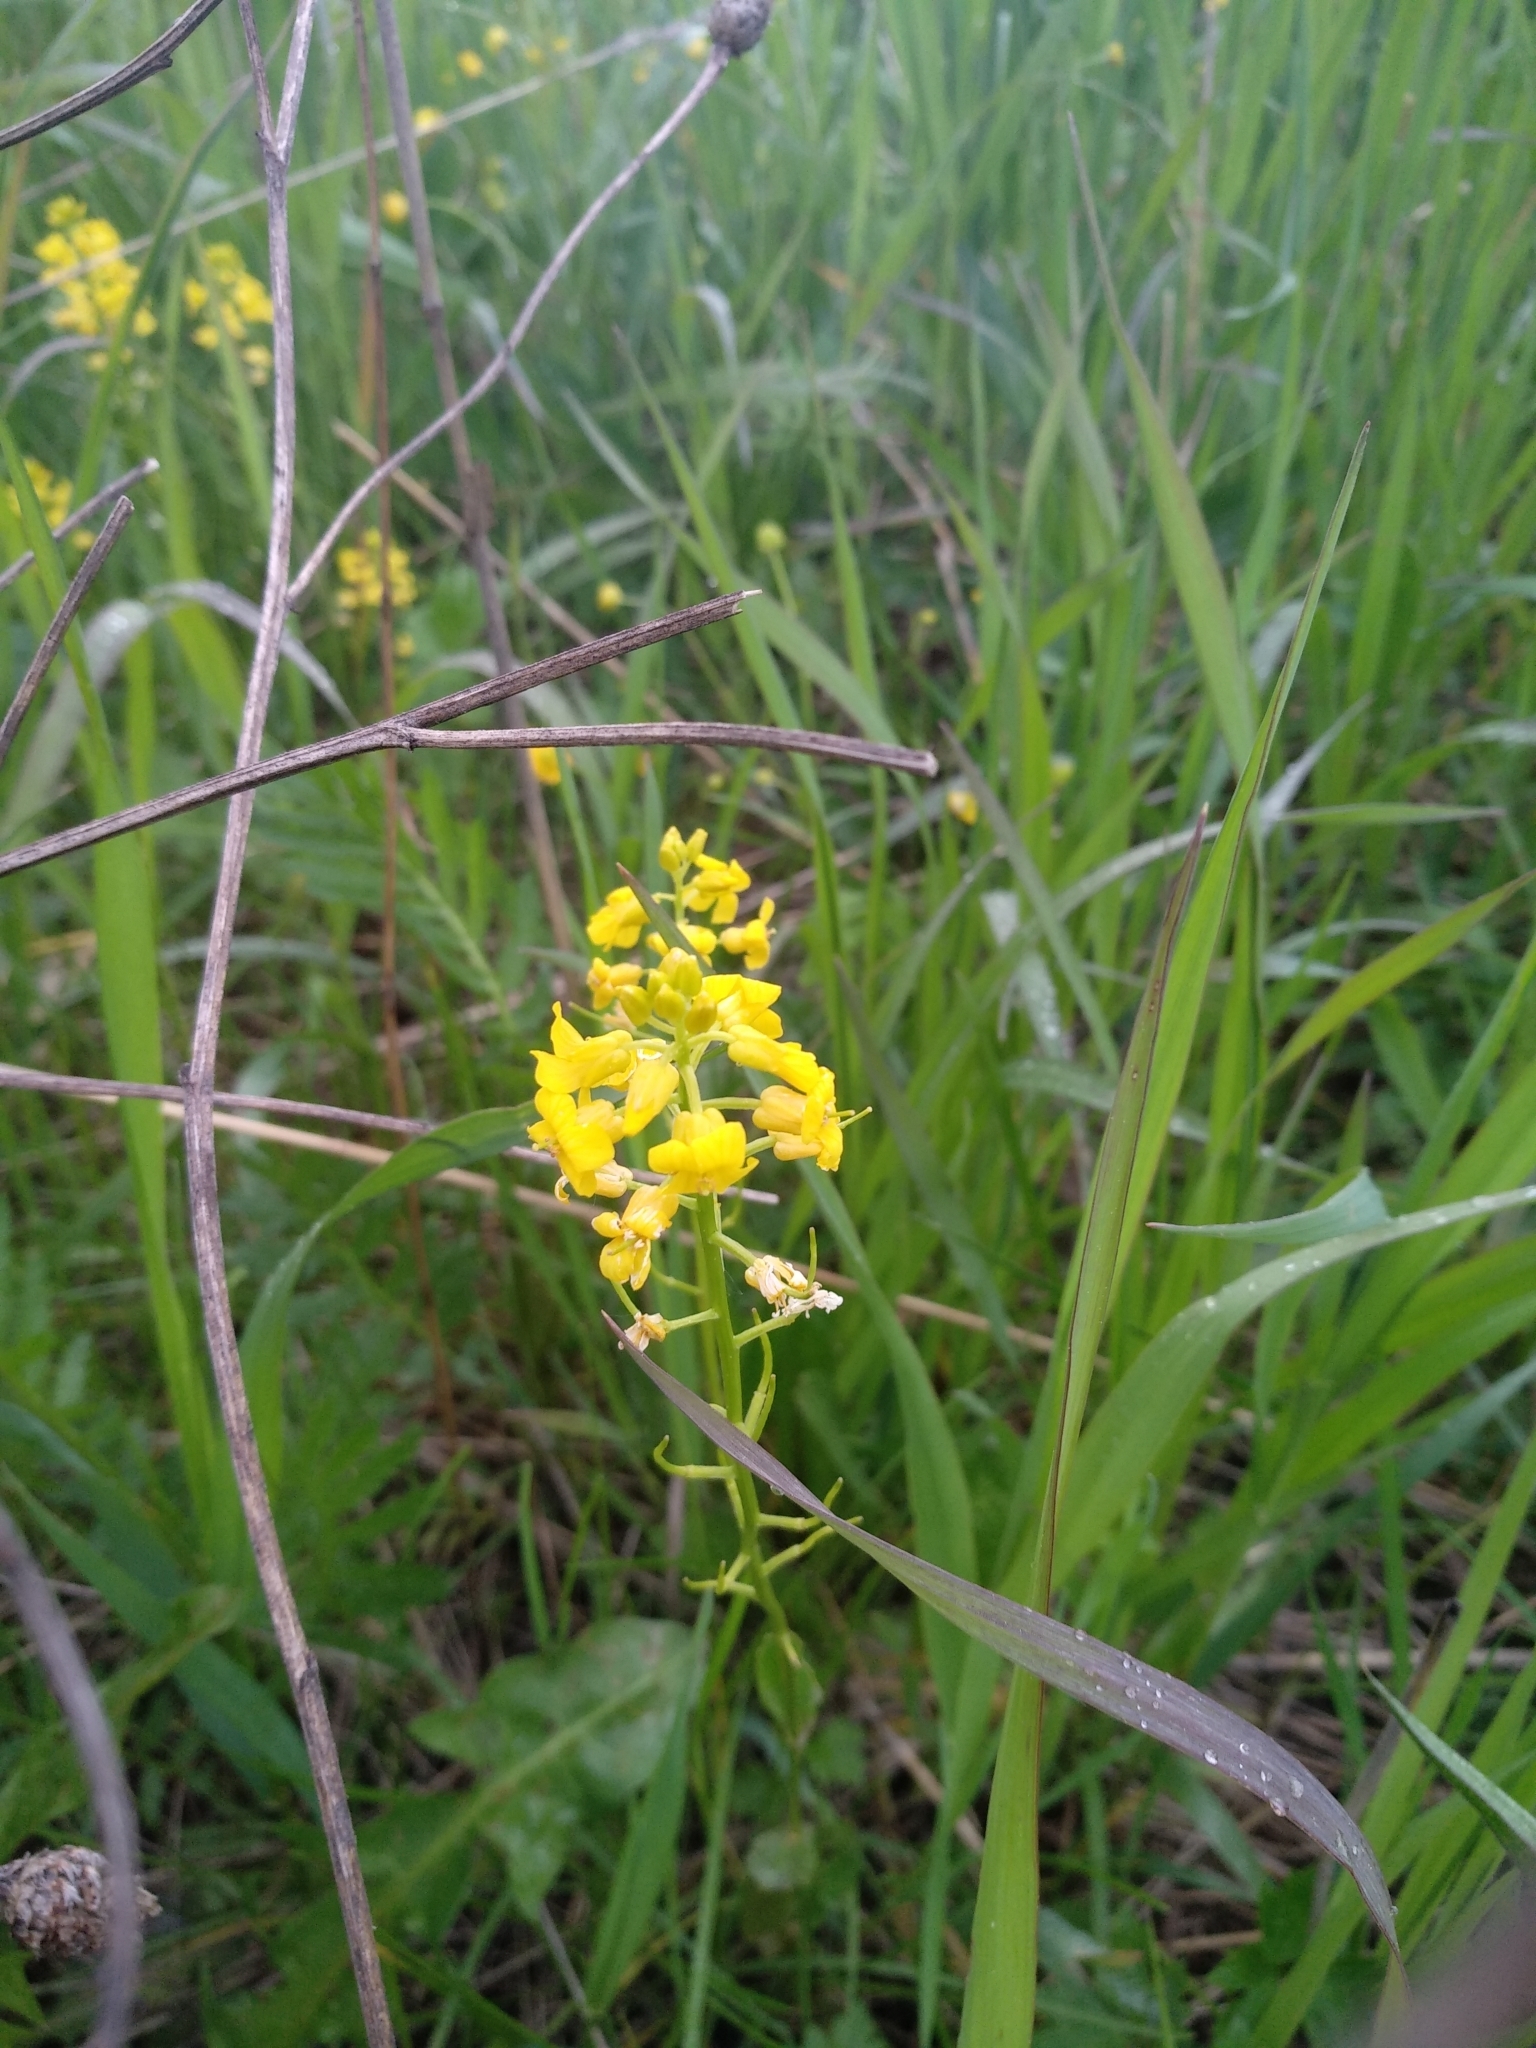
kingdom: Plantae
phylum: Tracheophyta
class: Magnoliopsida
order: Brassicales
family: Brassicaceae
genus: Barbarea
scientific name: Barbarea vulgaris
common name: Cressy-greens
